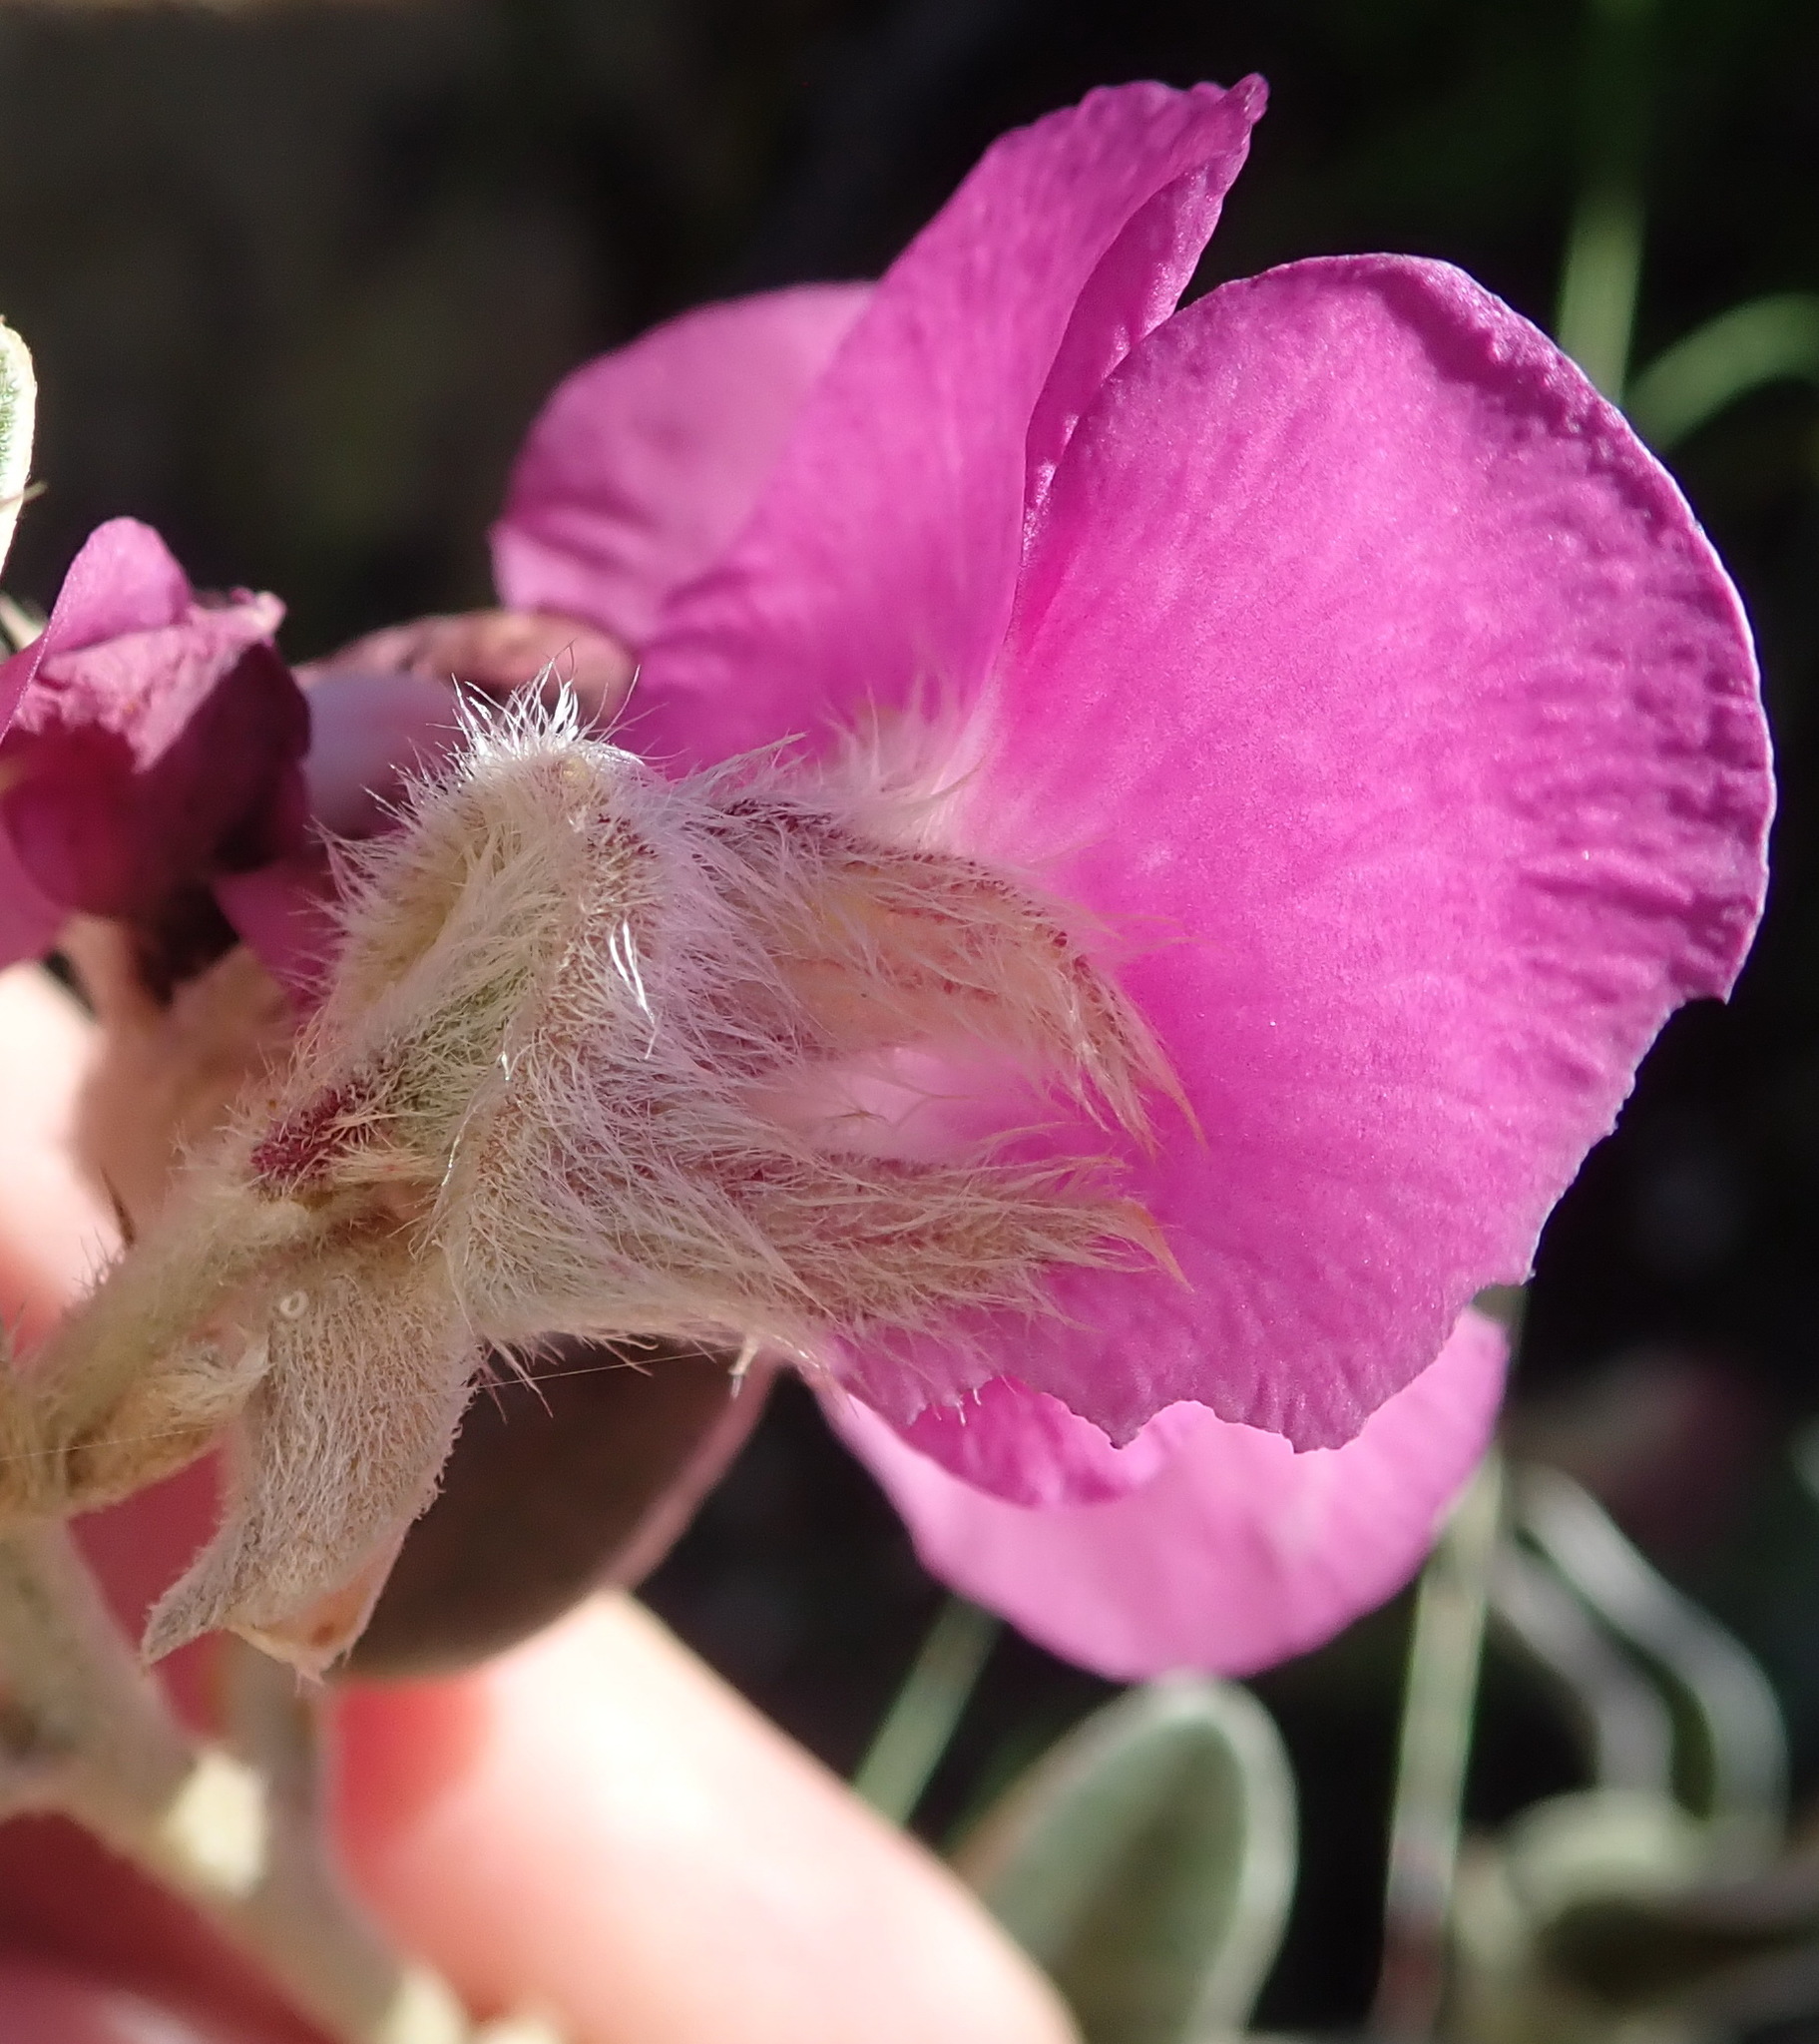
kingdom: Plantae
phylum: Tracheophyta
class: Magnoliopsida
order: Fabales
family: Fabaceae
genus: Podalyria
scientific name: Podalyria burchellii
